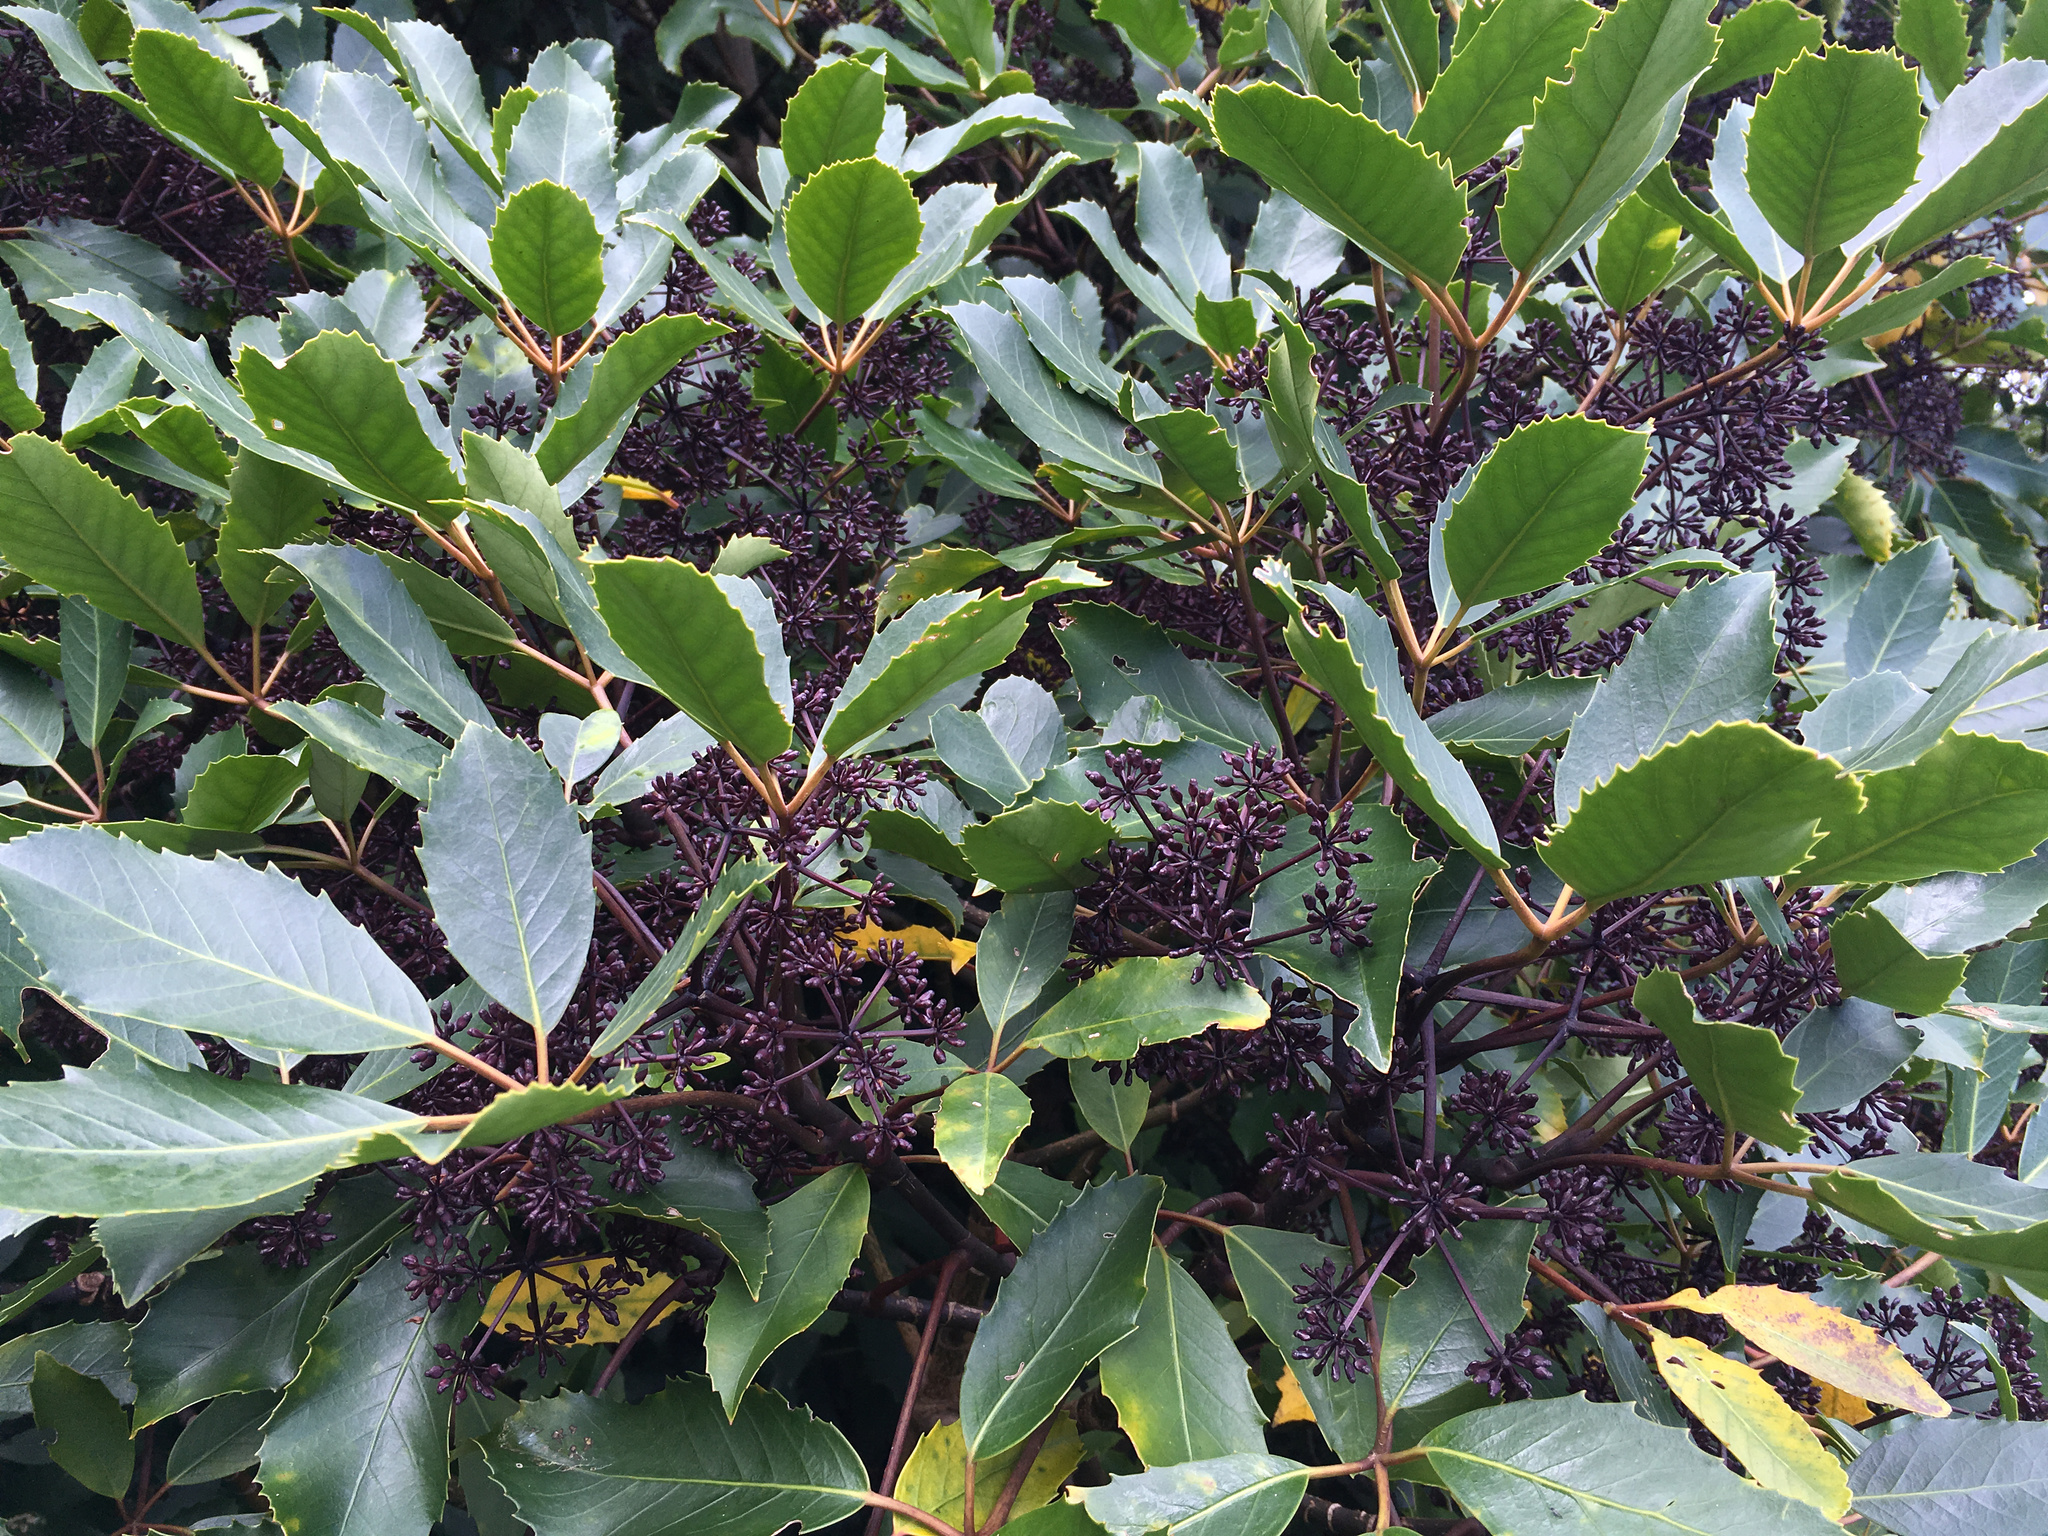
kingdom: Plantae
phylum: Tracheophyta
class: Magnoliopsida
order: Apiales
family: Araliaceae
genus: Neopanax
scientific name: Neopanax arboreus
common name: Five-fingers
